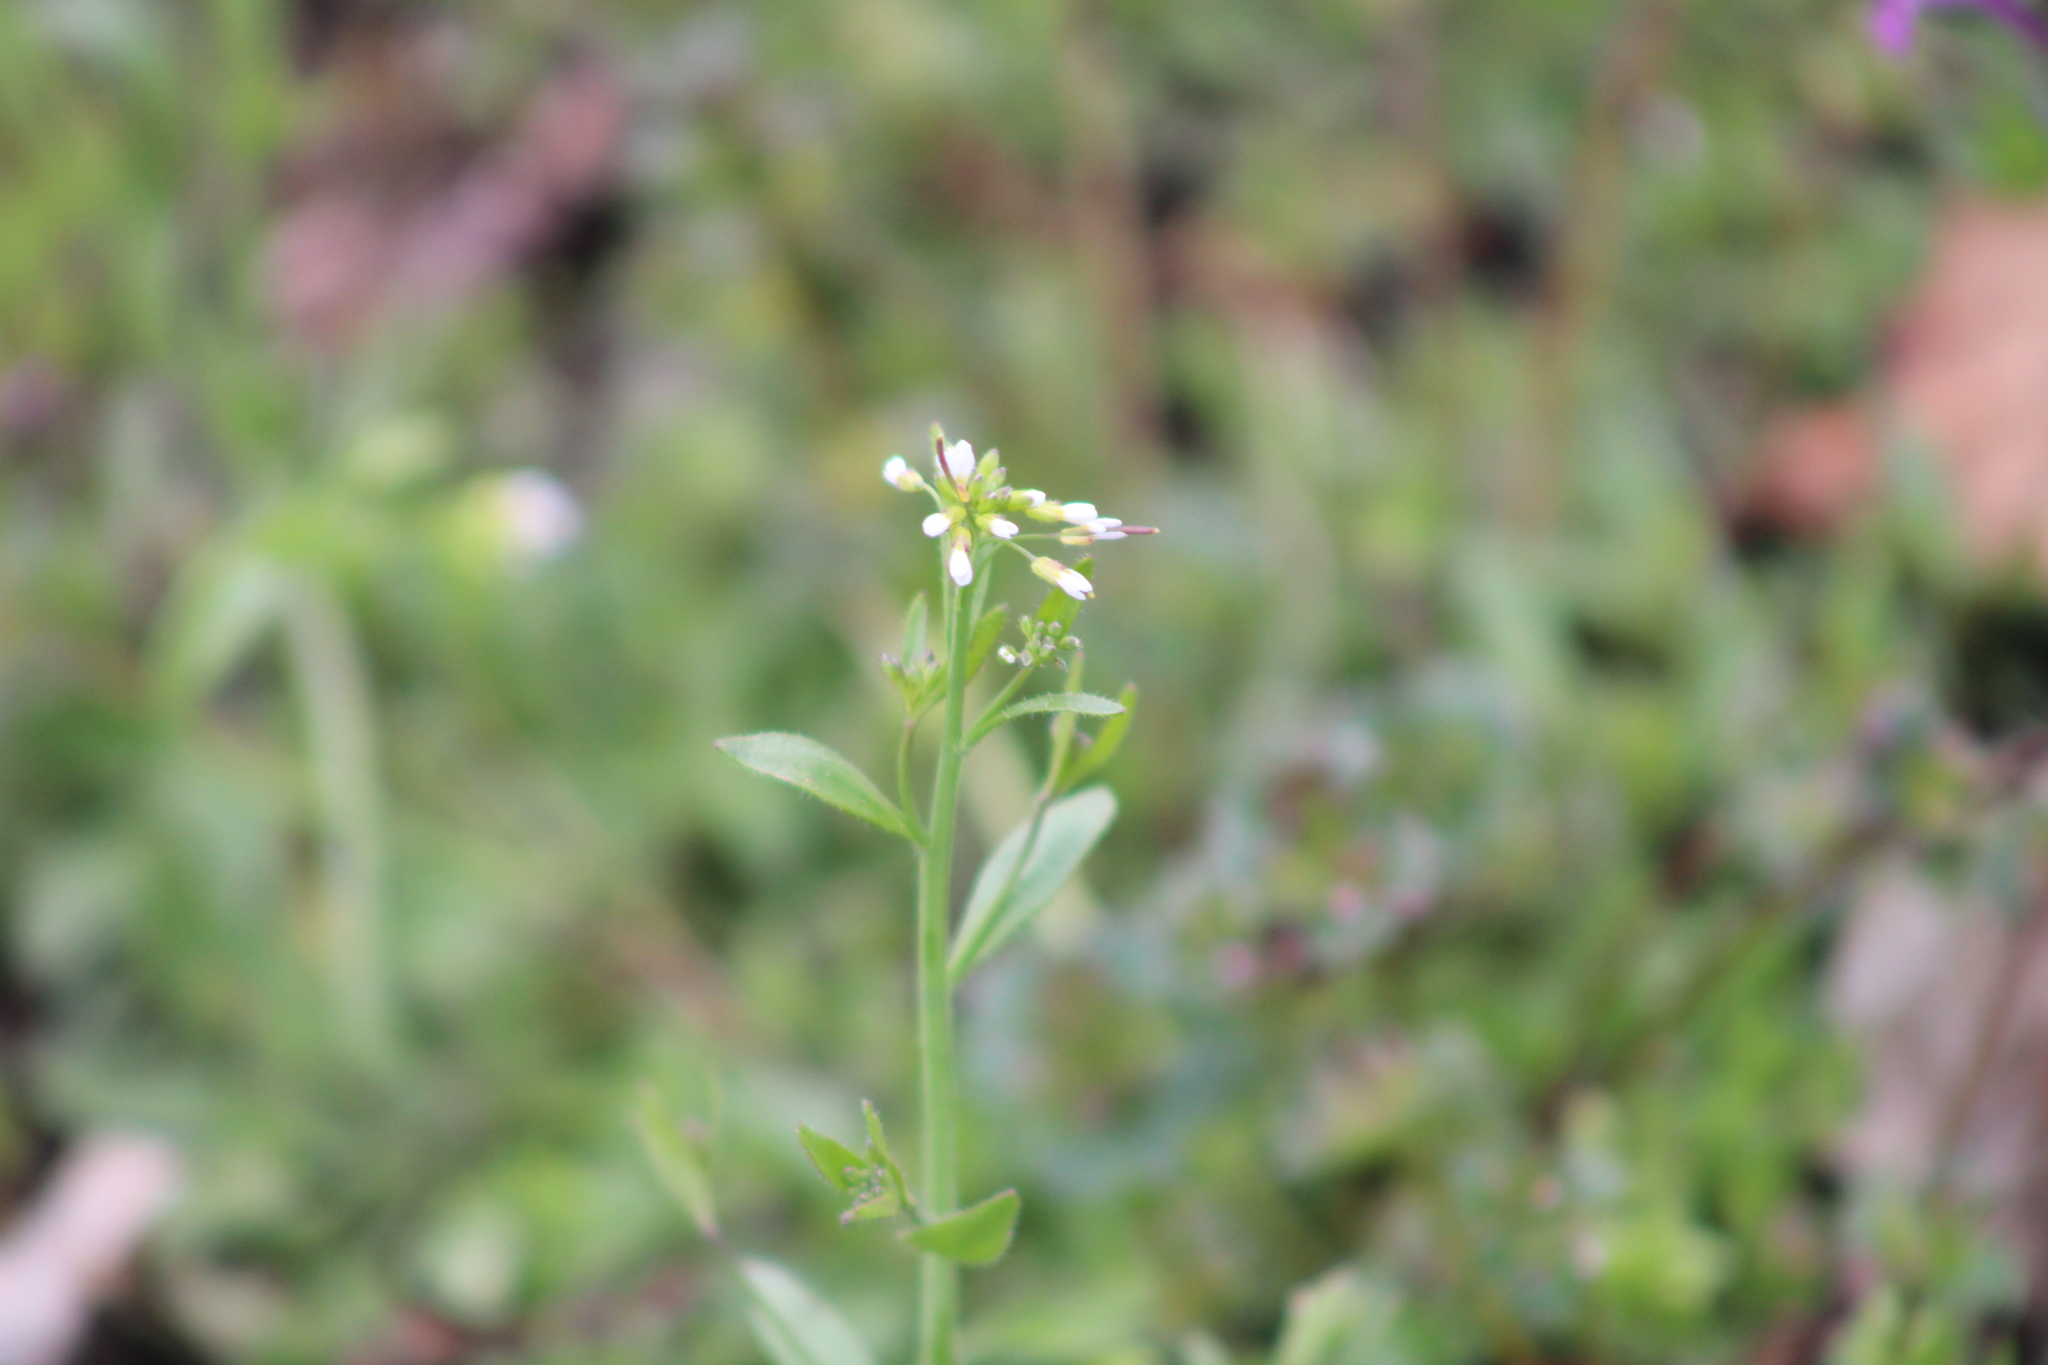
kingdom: Plantae
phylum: Tracheophyta
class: Magnoliopsida
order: Brassicales
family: Brassicaceae
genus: Arabidopsis
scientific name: Arabidopsis thaliana
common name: Thale cress
